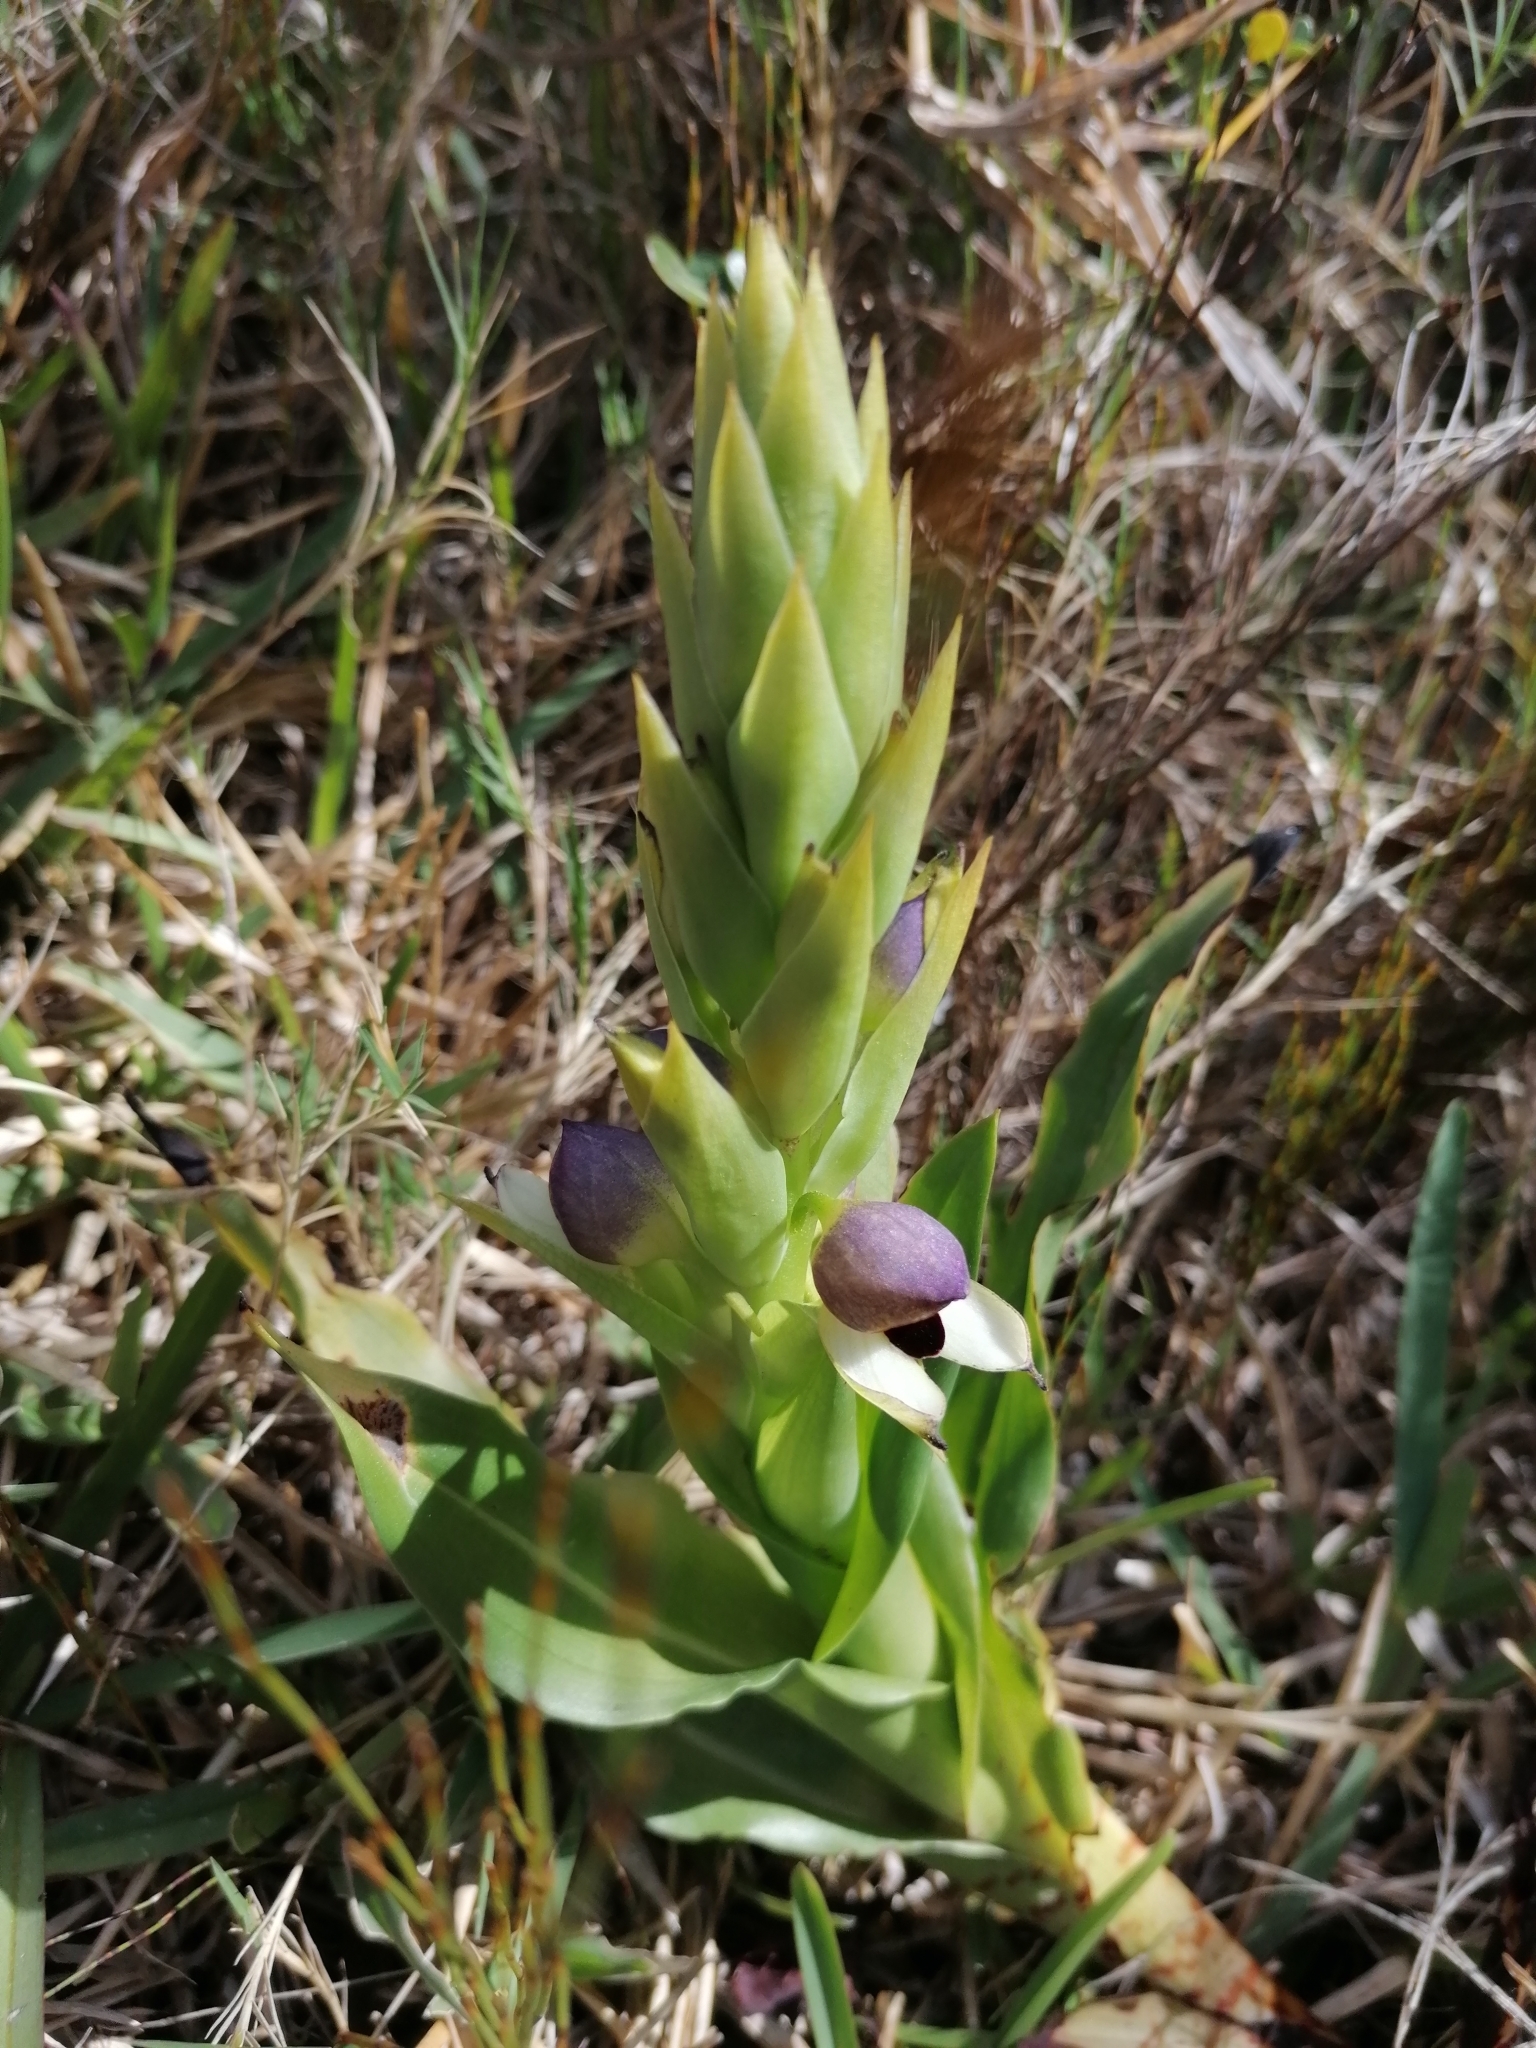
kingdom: Plantae
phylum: Tracheophyta
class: Liliopsida
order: Asparagales
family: Orchidaceae
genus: Disa
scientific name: Disa cornuta
